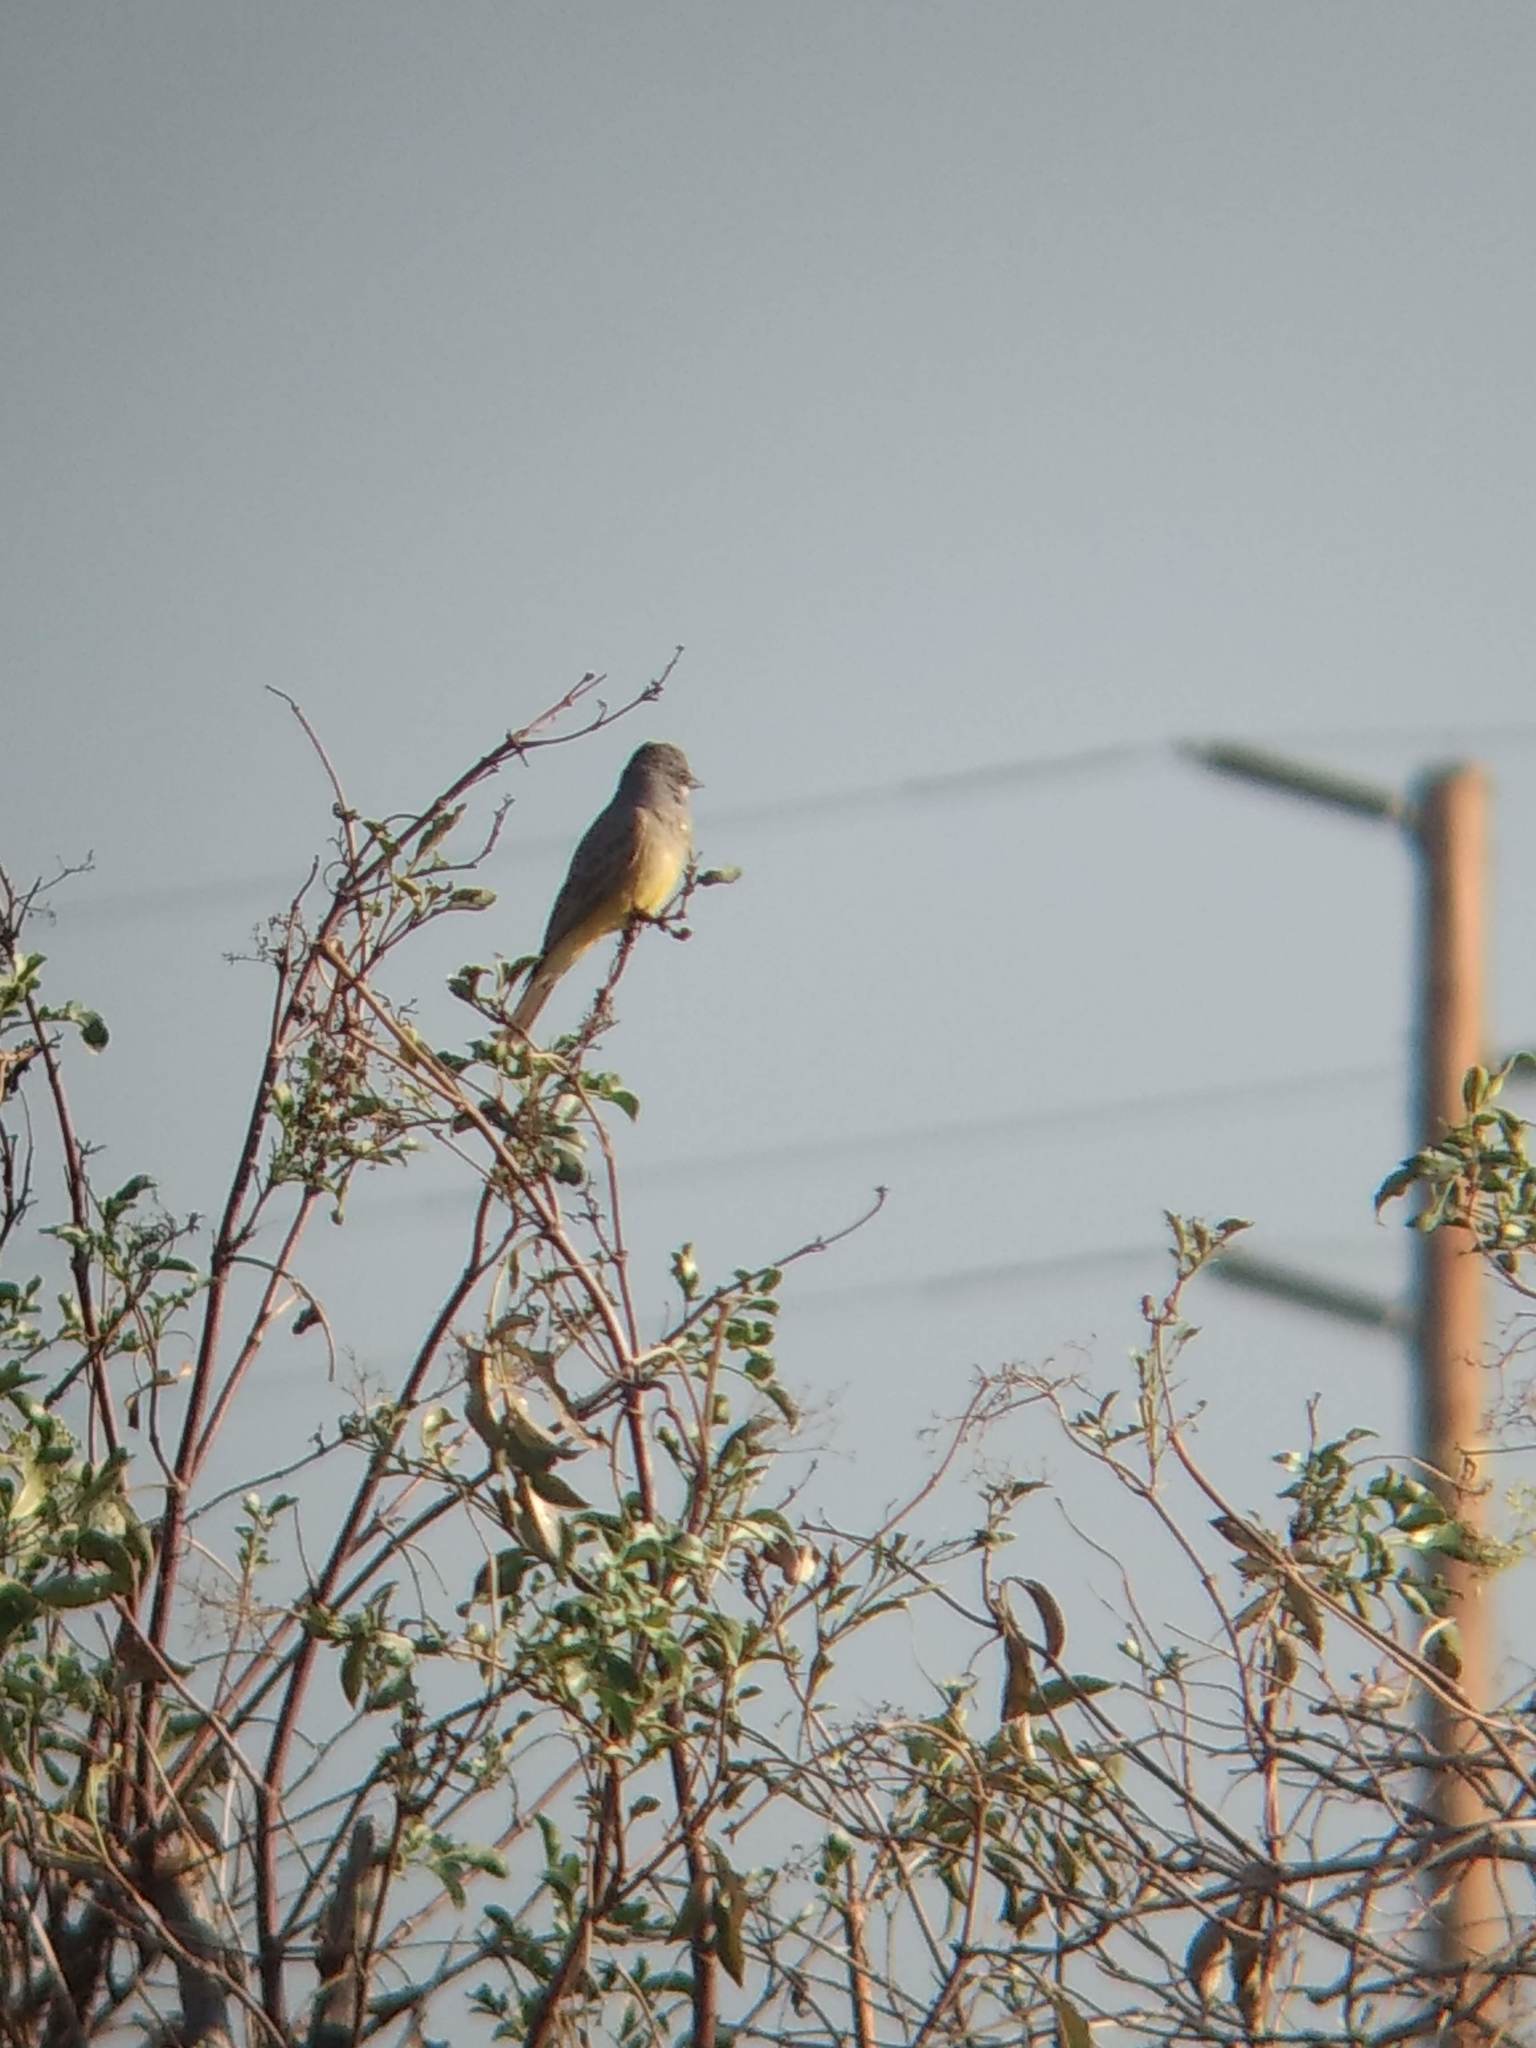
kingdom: Animalia
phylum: Chordata
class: Aves
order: Passeriformes
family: Tyrannidae
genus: Tyrannus
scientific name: Tyrannus vociferans
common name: Cassin's kingbird
